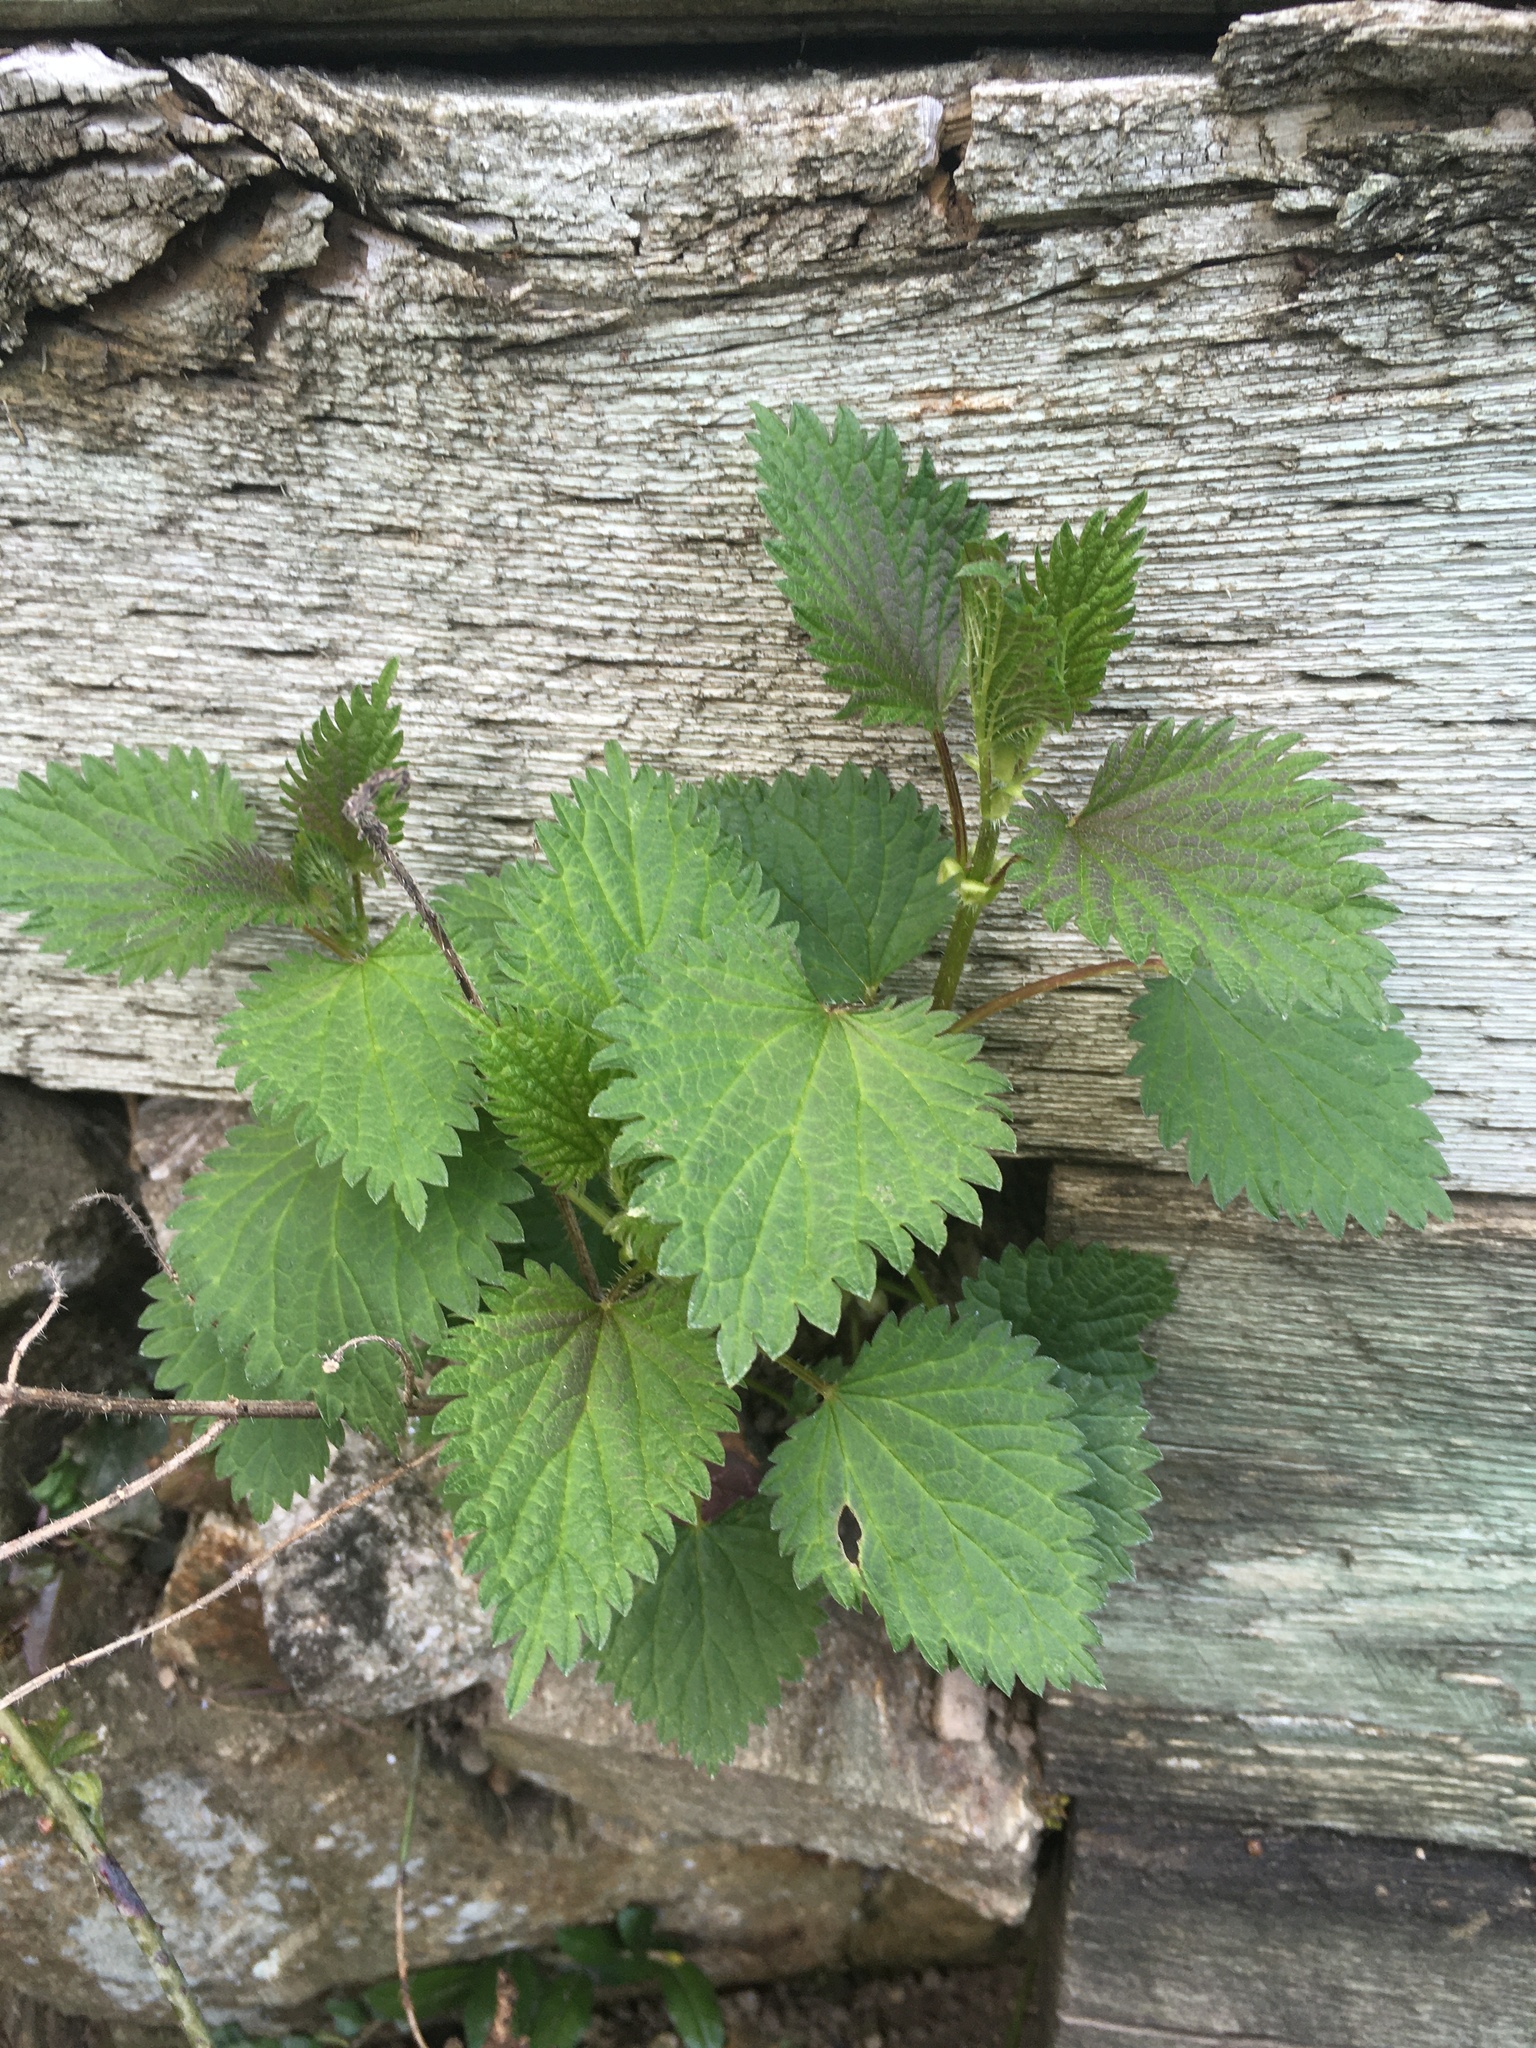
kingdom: Plantae
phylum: Tracheophyta
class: Magnoliopsida
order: Rosales
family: Urticaceae
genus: Urtica
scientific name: Urtica dioica
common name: Common nettle
